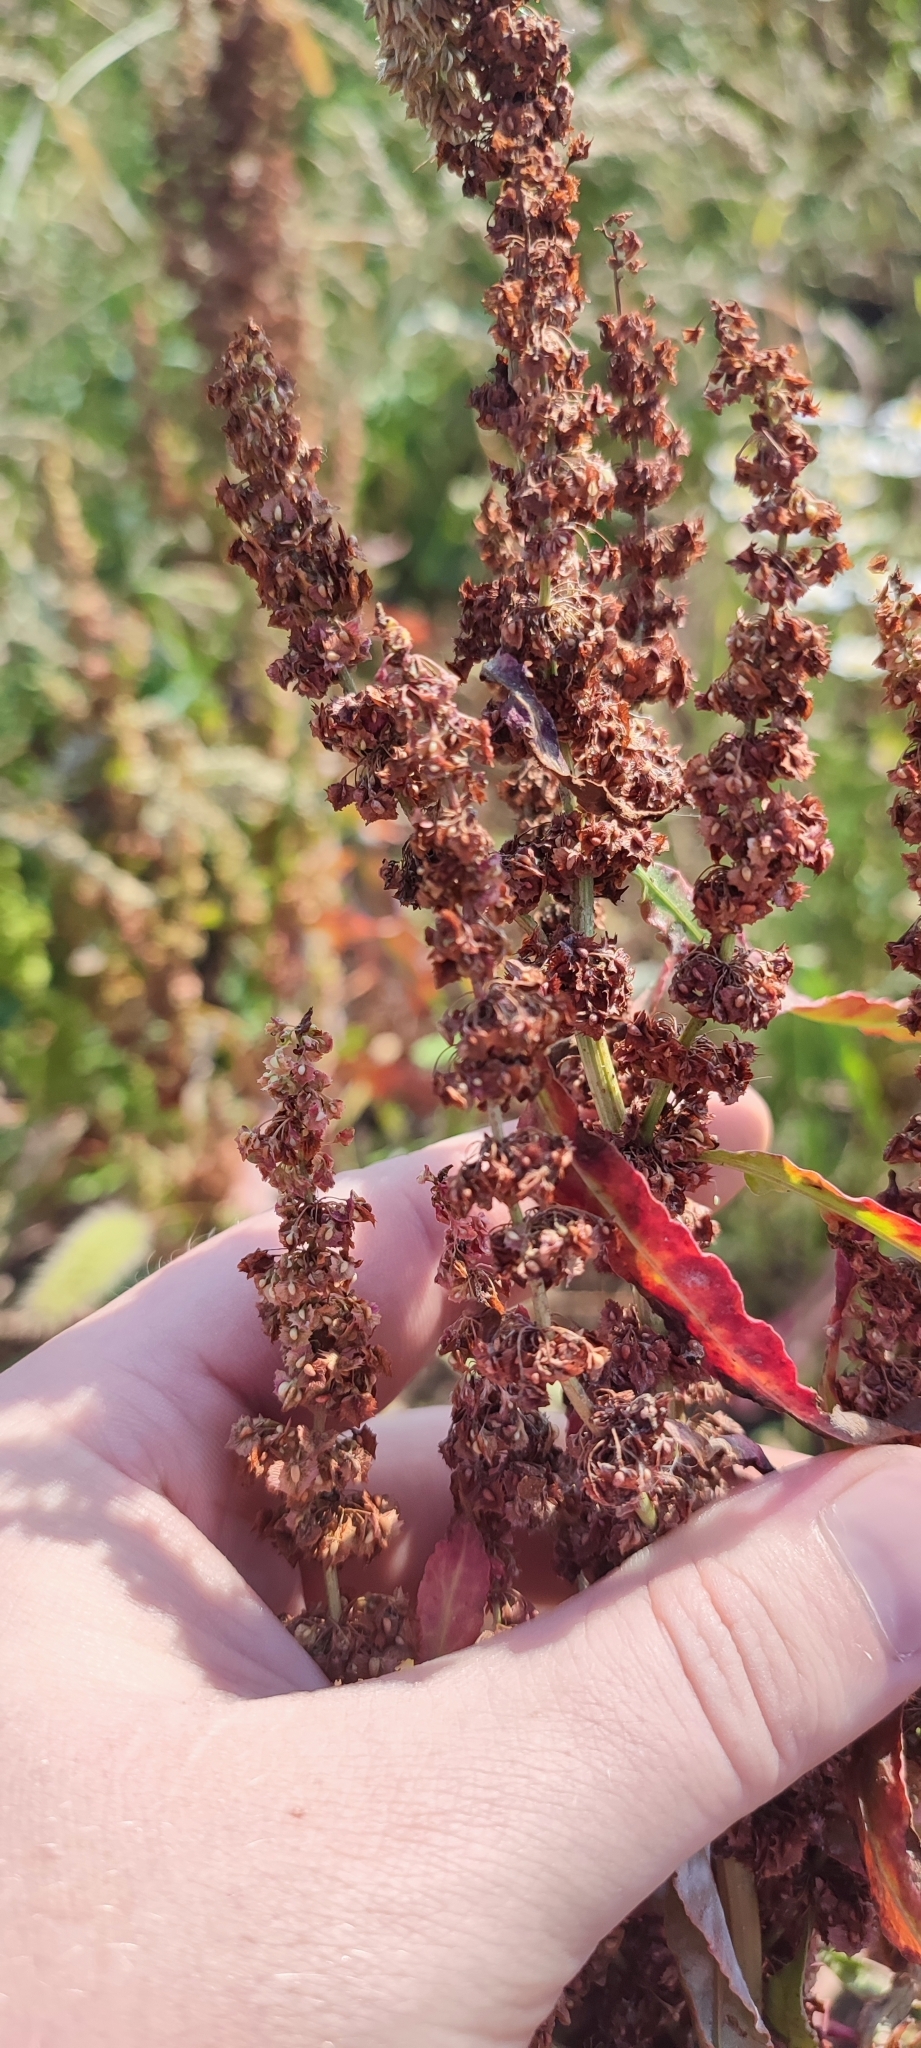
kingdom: Plantae
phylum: Tracheophyta
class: Magnoliopsida
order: Caryophyllales
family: Polygonaceae
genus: Rumex
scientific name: Rumex stenophyllus
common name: Narrowleaf dock
